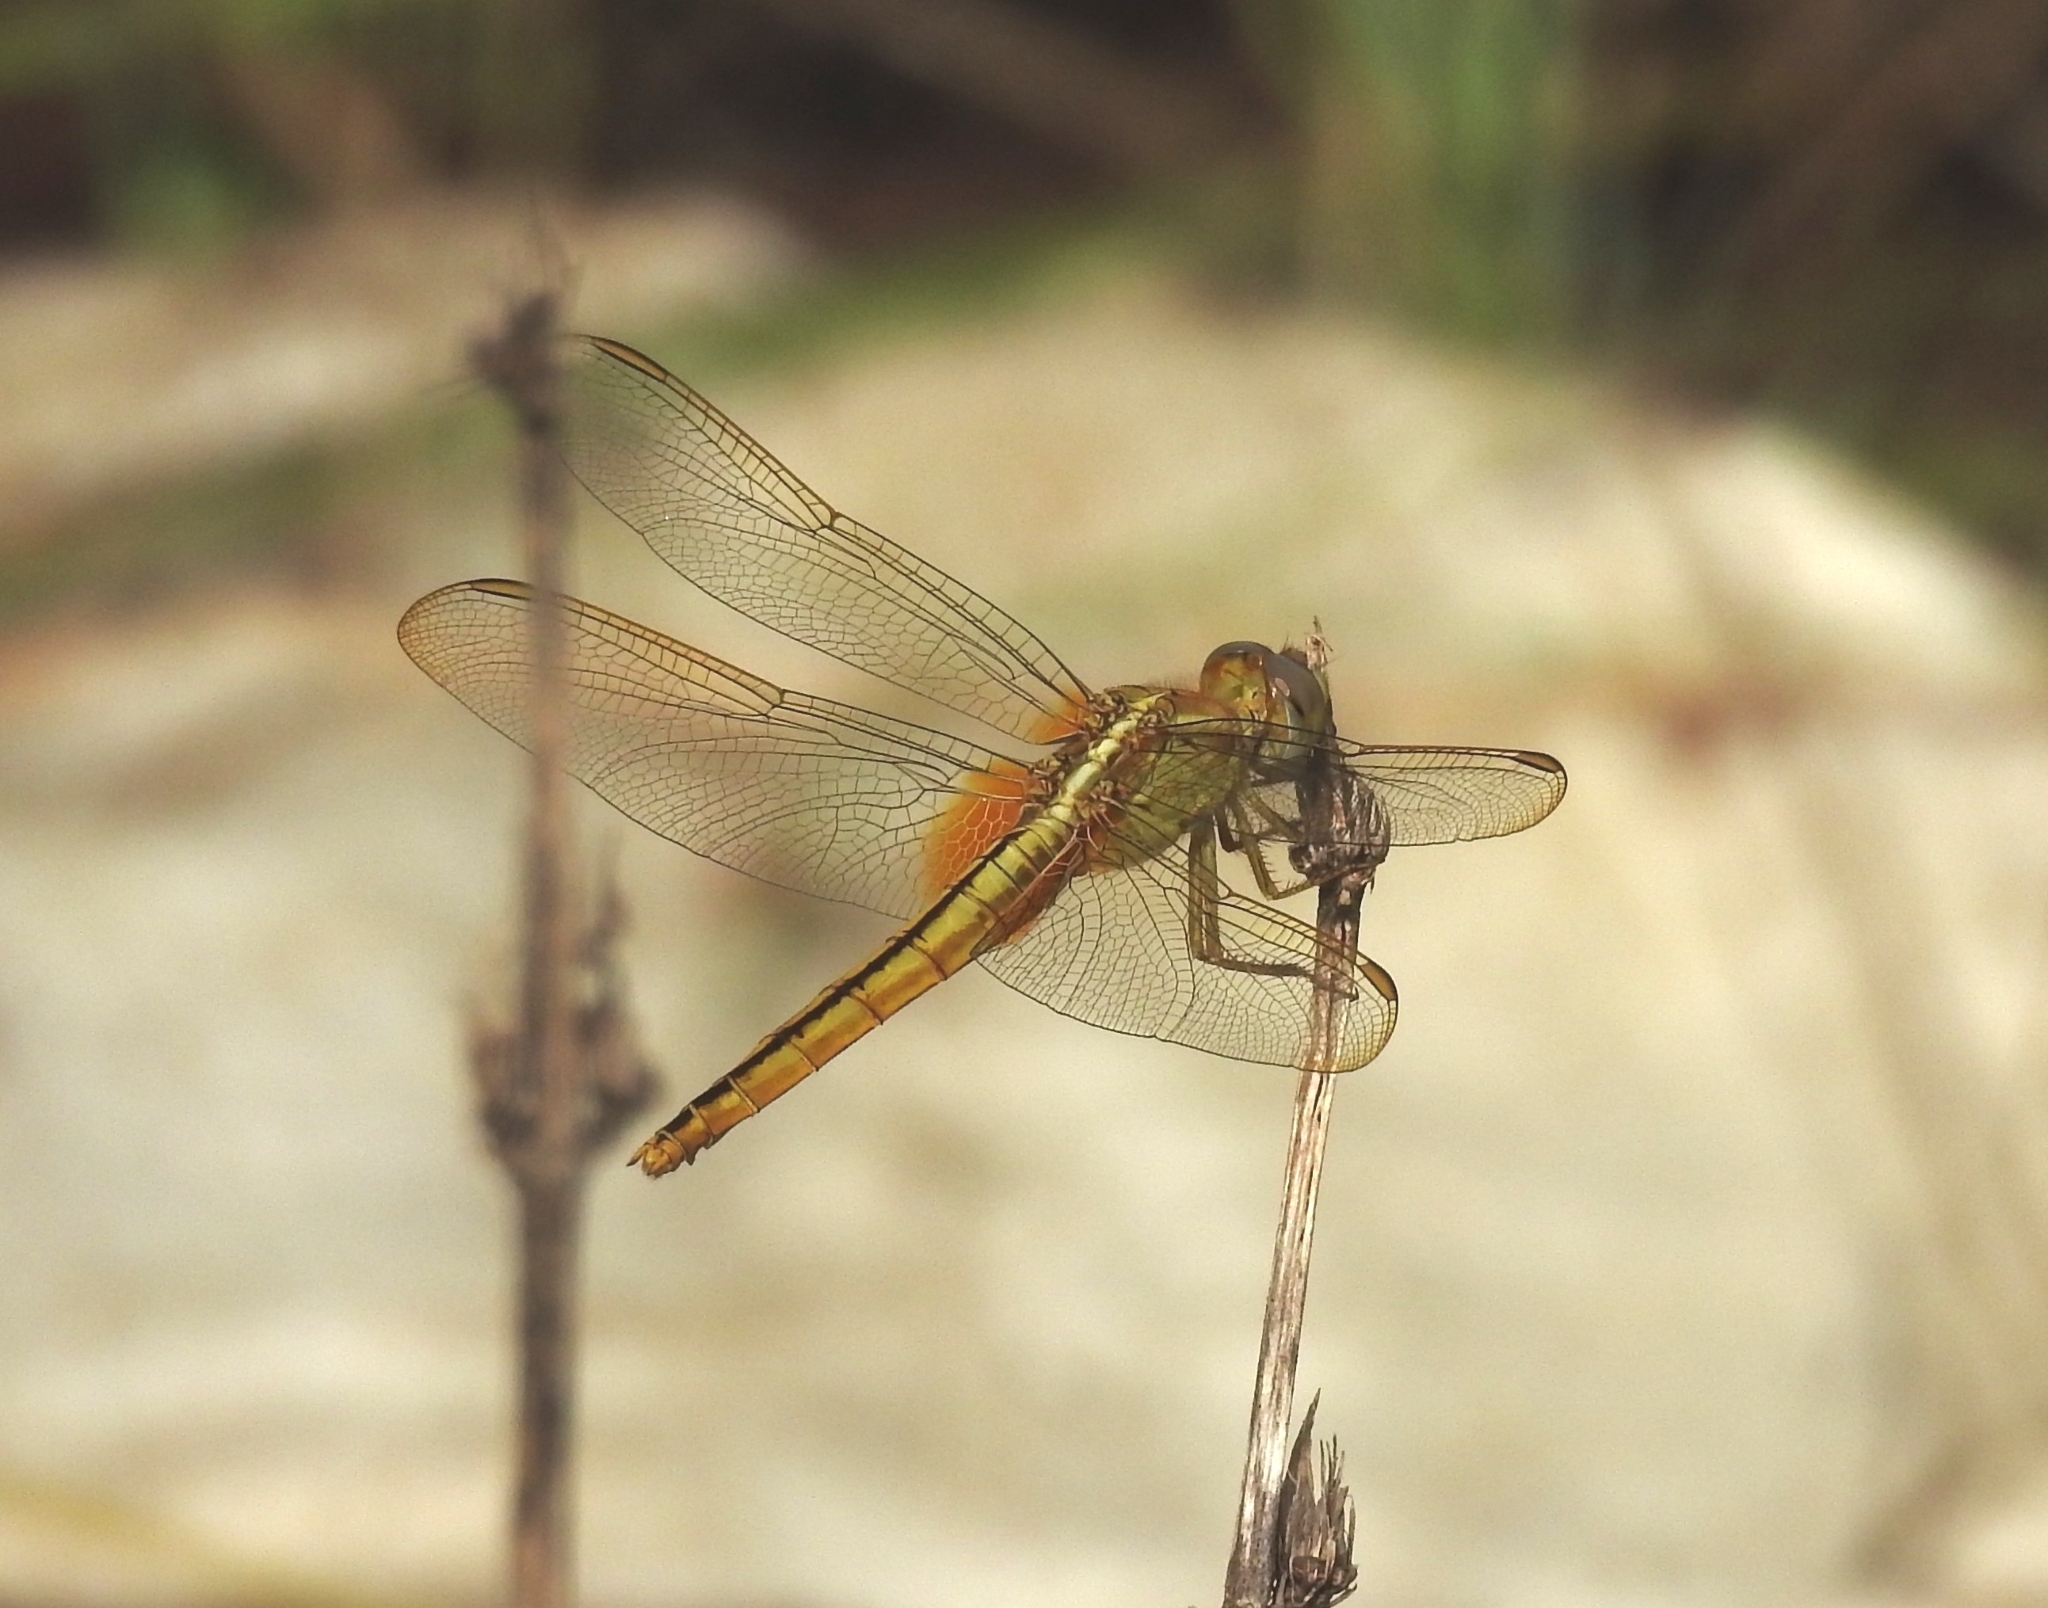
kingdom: Animalia
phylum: Arthropoda
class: Insecta
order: Odonata
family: Libellulidae
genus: Crocothemis
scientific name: Crocothemis servilia
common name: Scarlet skimmer
